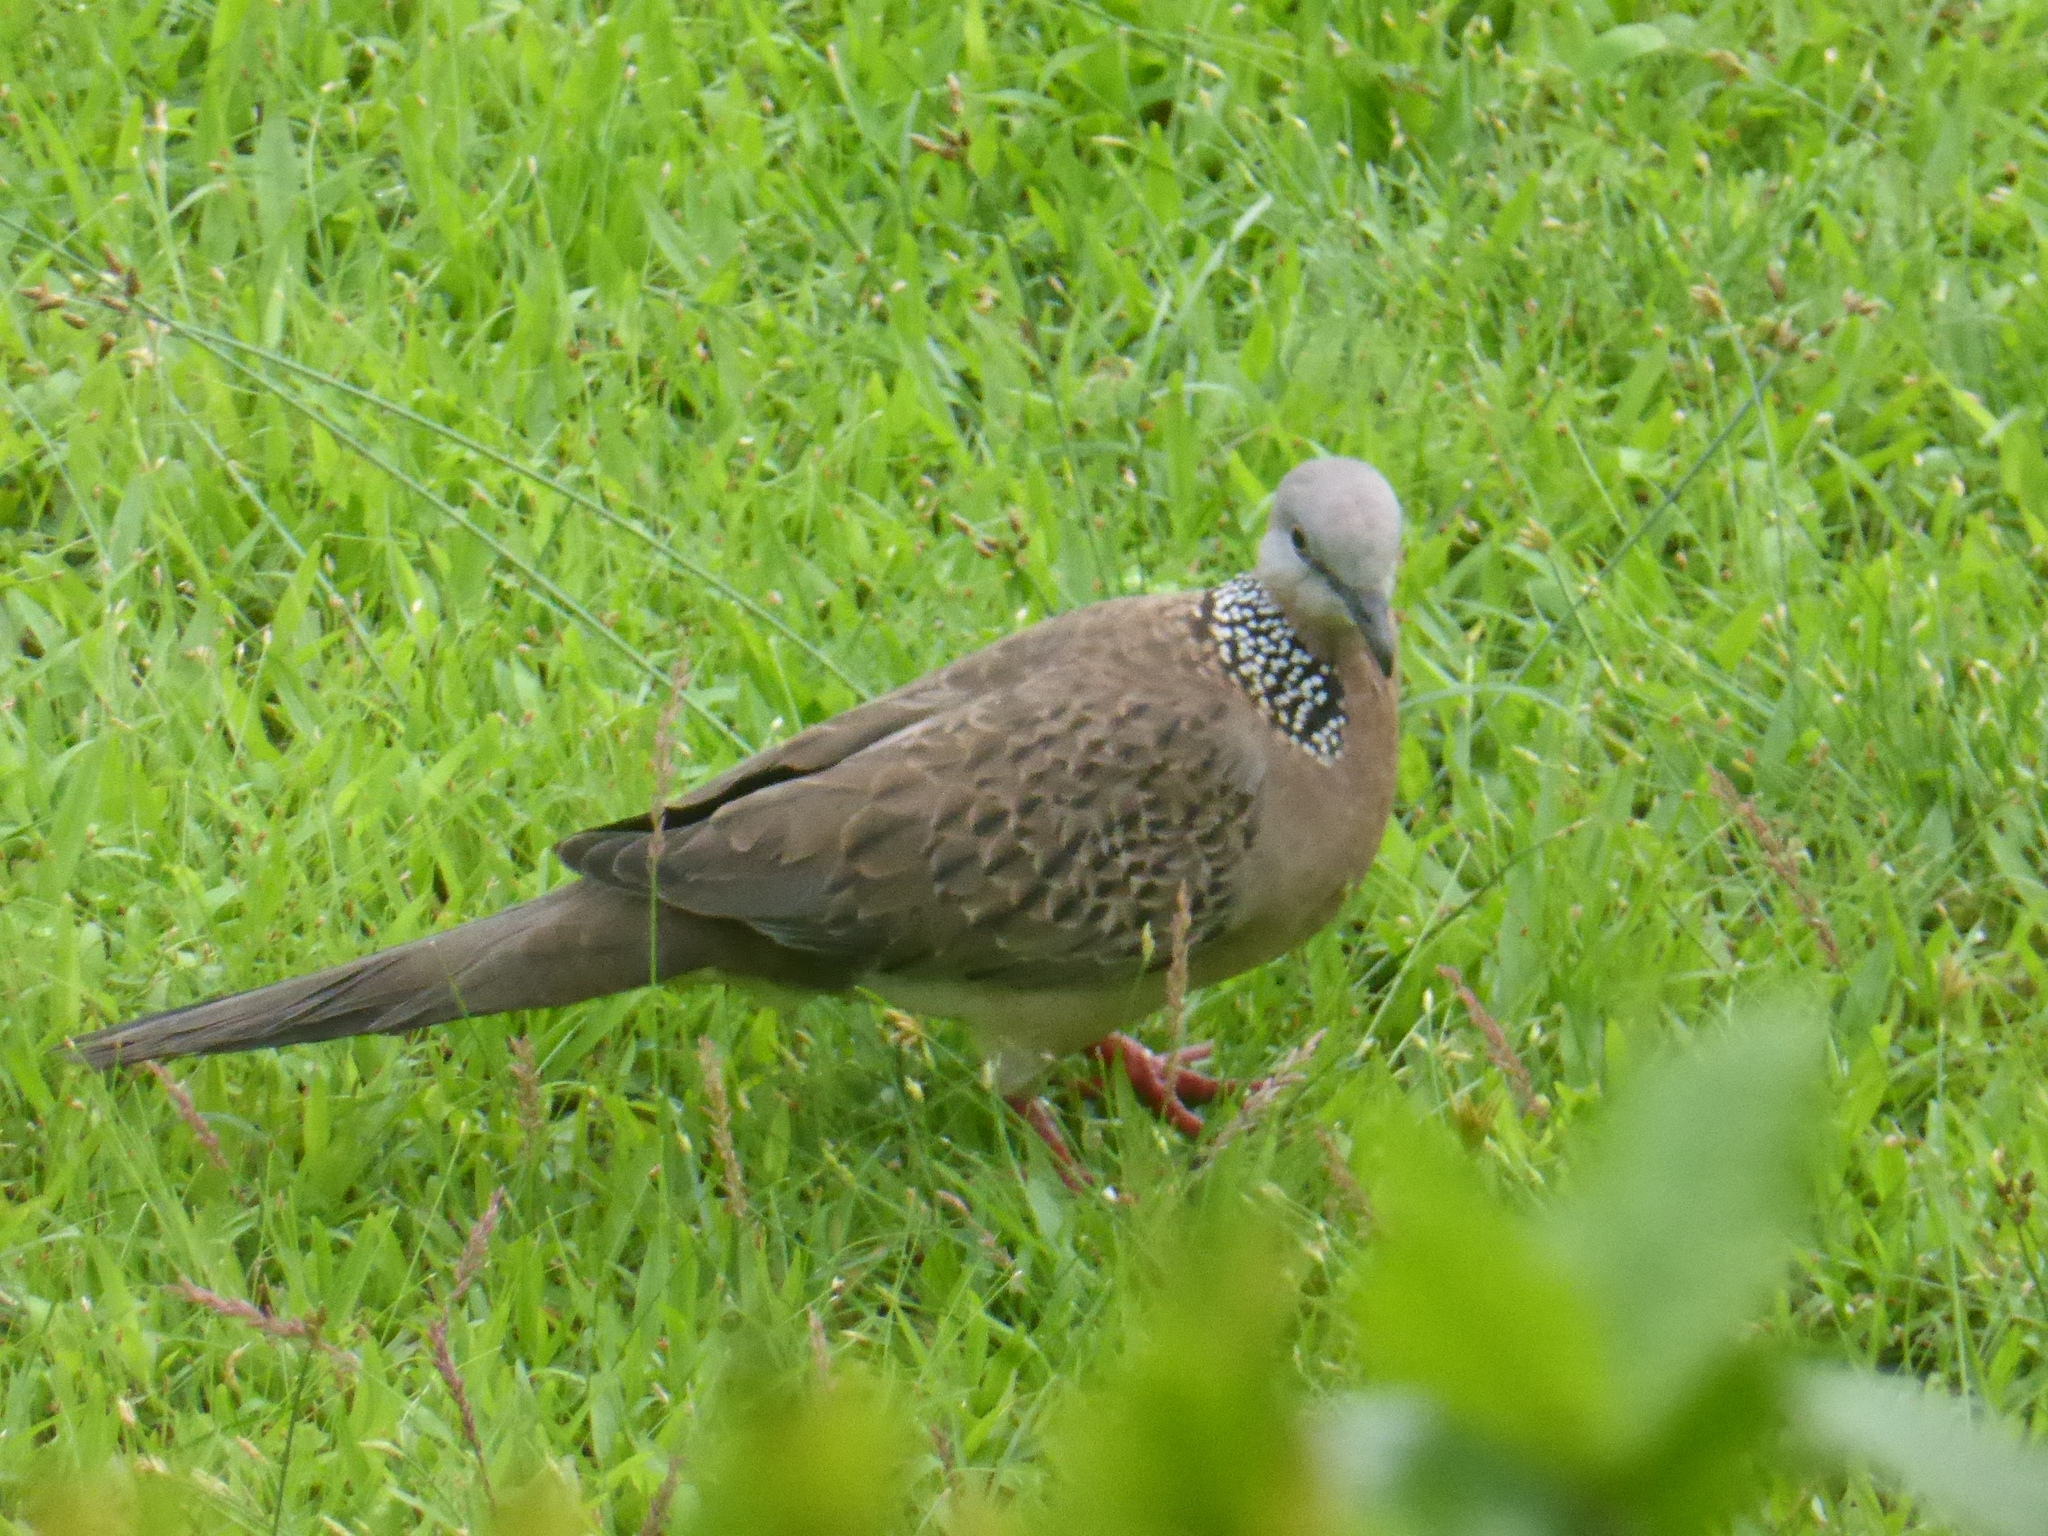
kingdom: Animalia
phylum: Chordata
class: Aves
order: Columbiformes
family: Columbidae
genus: Spilopelia
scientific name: Spilopelia chinensis
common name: Spotted dove
